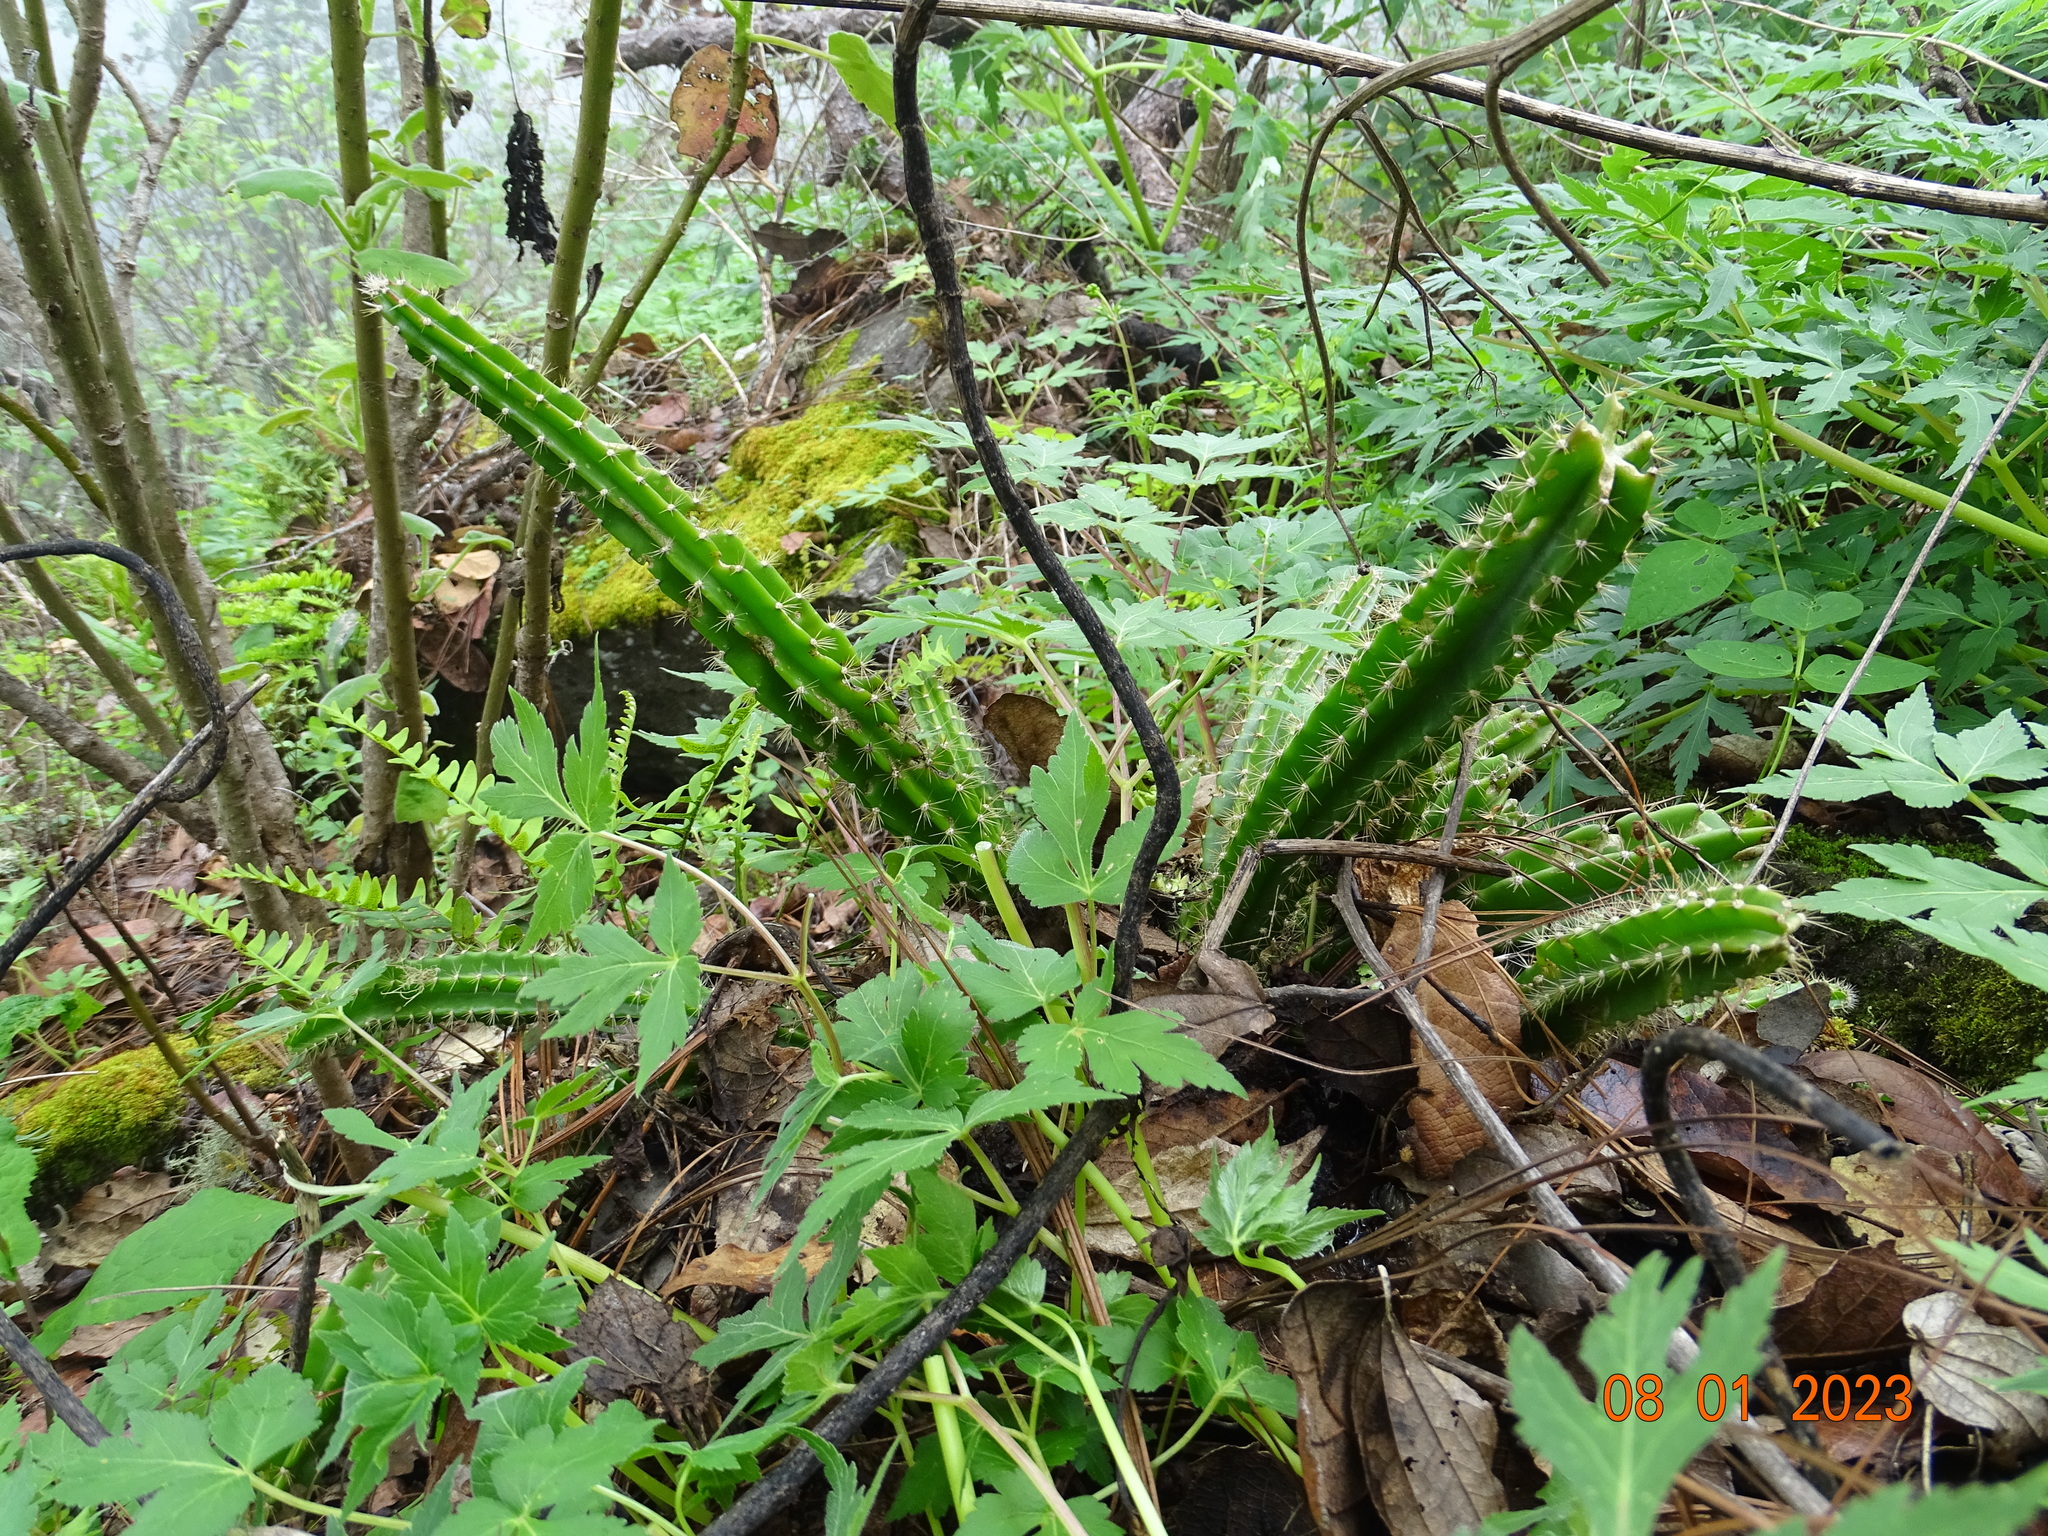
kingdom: Plantae
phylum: Tracheophyta
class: Magnoliopsida
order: Caryophyllales
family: Cactaceae
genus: Disocactus
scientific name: Disocactus speciosus
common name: Sun cereus
